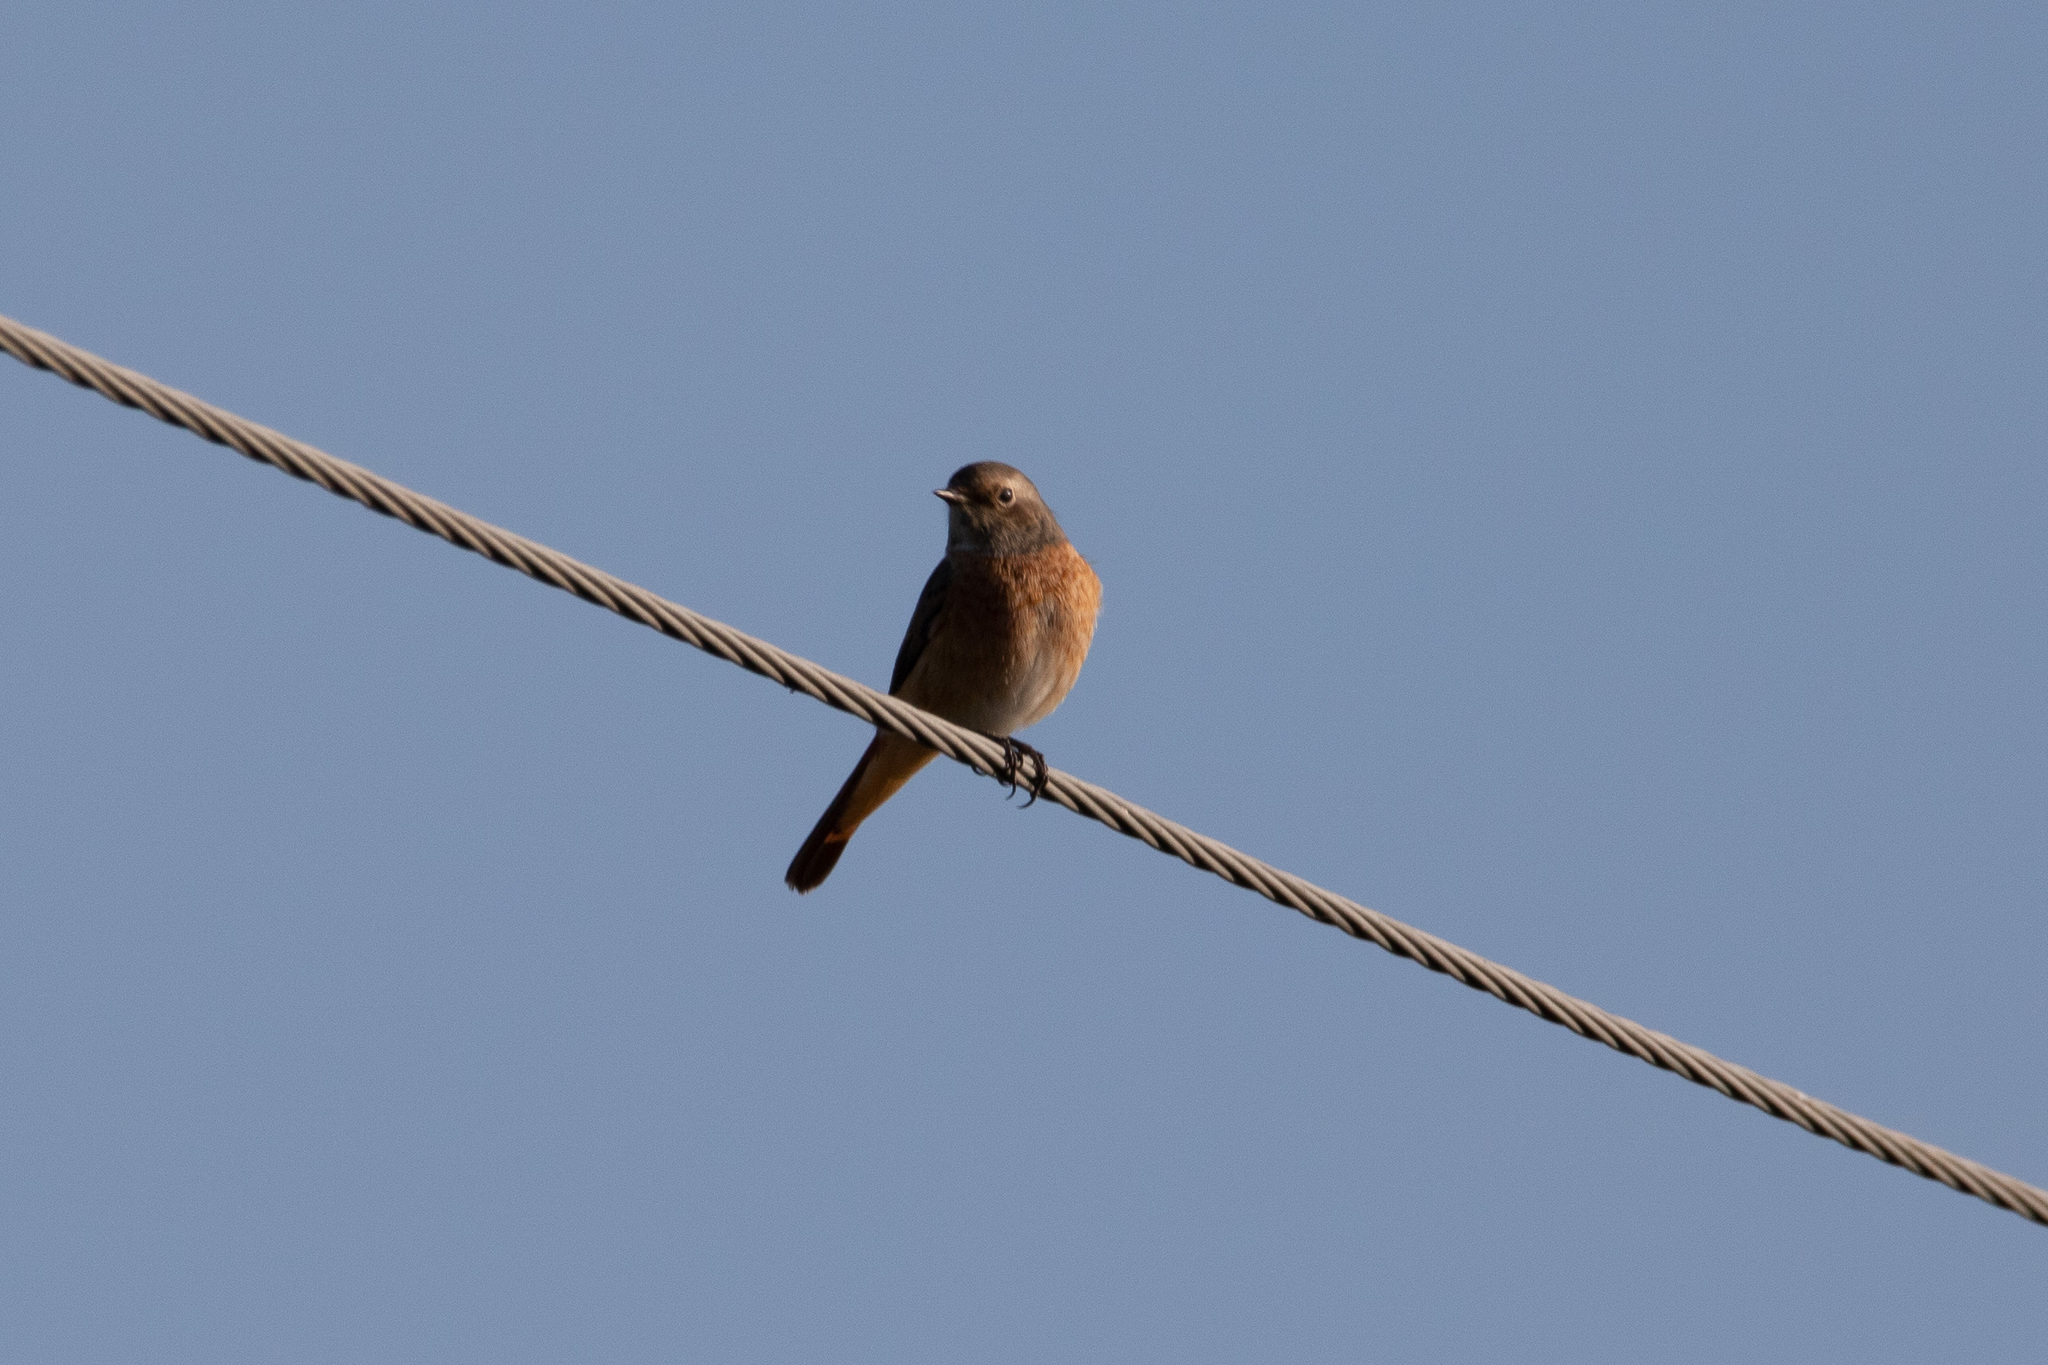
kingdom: Animalia
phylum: Chordata
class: Aves
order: Passeriformes
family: Muscicapidae
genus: Phoenicurus
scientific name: Phoenicurus phoenicurus
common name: Common redstart
